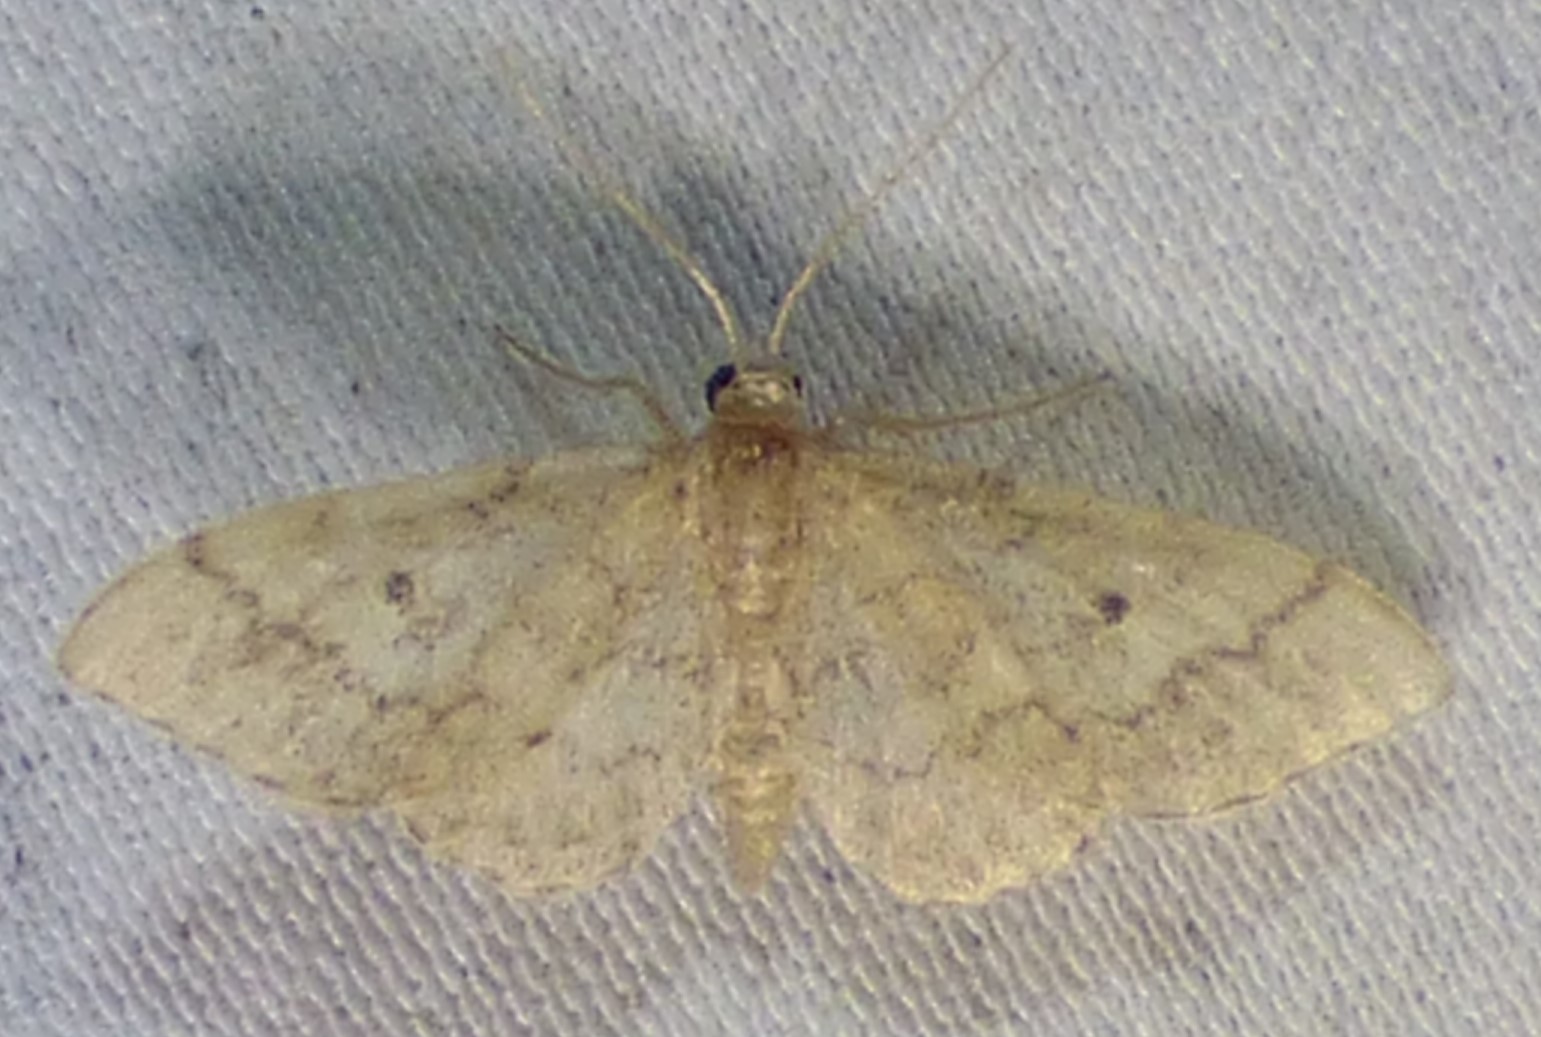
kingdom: Animalia
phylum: Arthropoda
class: Insecta
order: Lepidoptera
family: Geometridae
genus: Idaea
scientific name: Idaea demissaria
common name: Red-bordered wave
